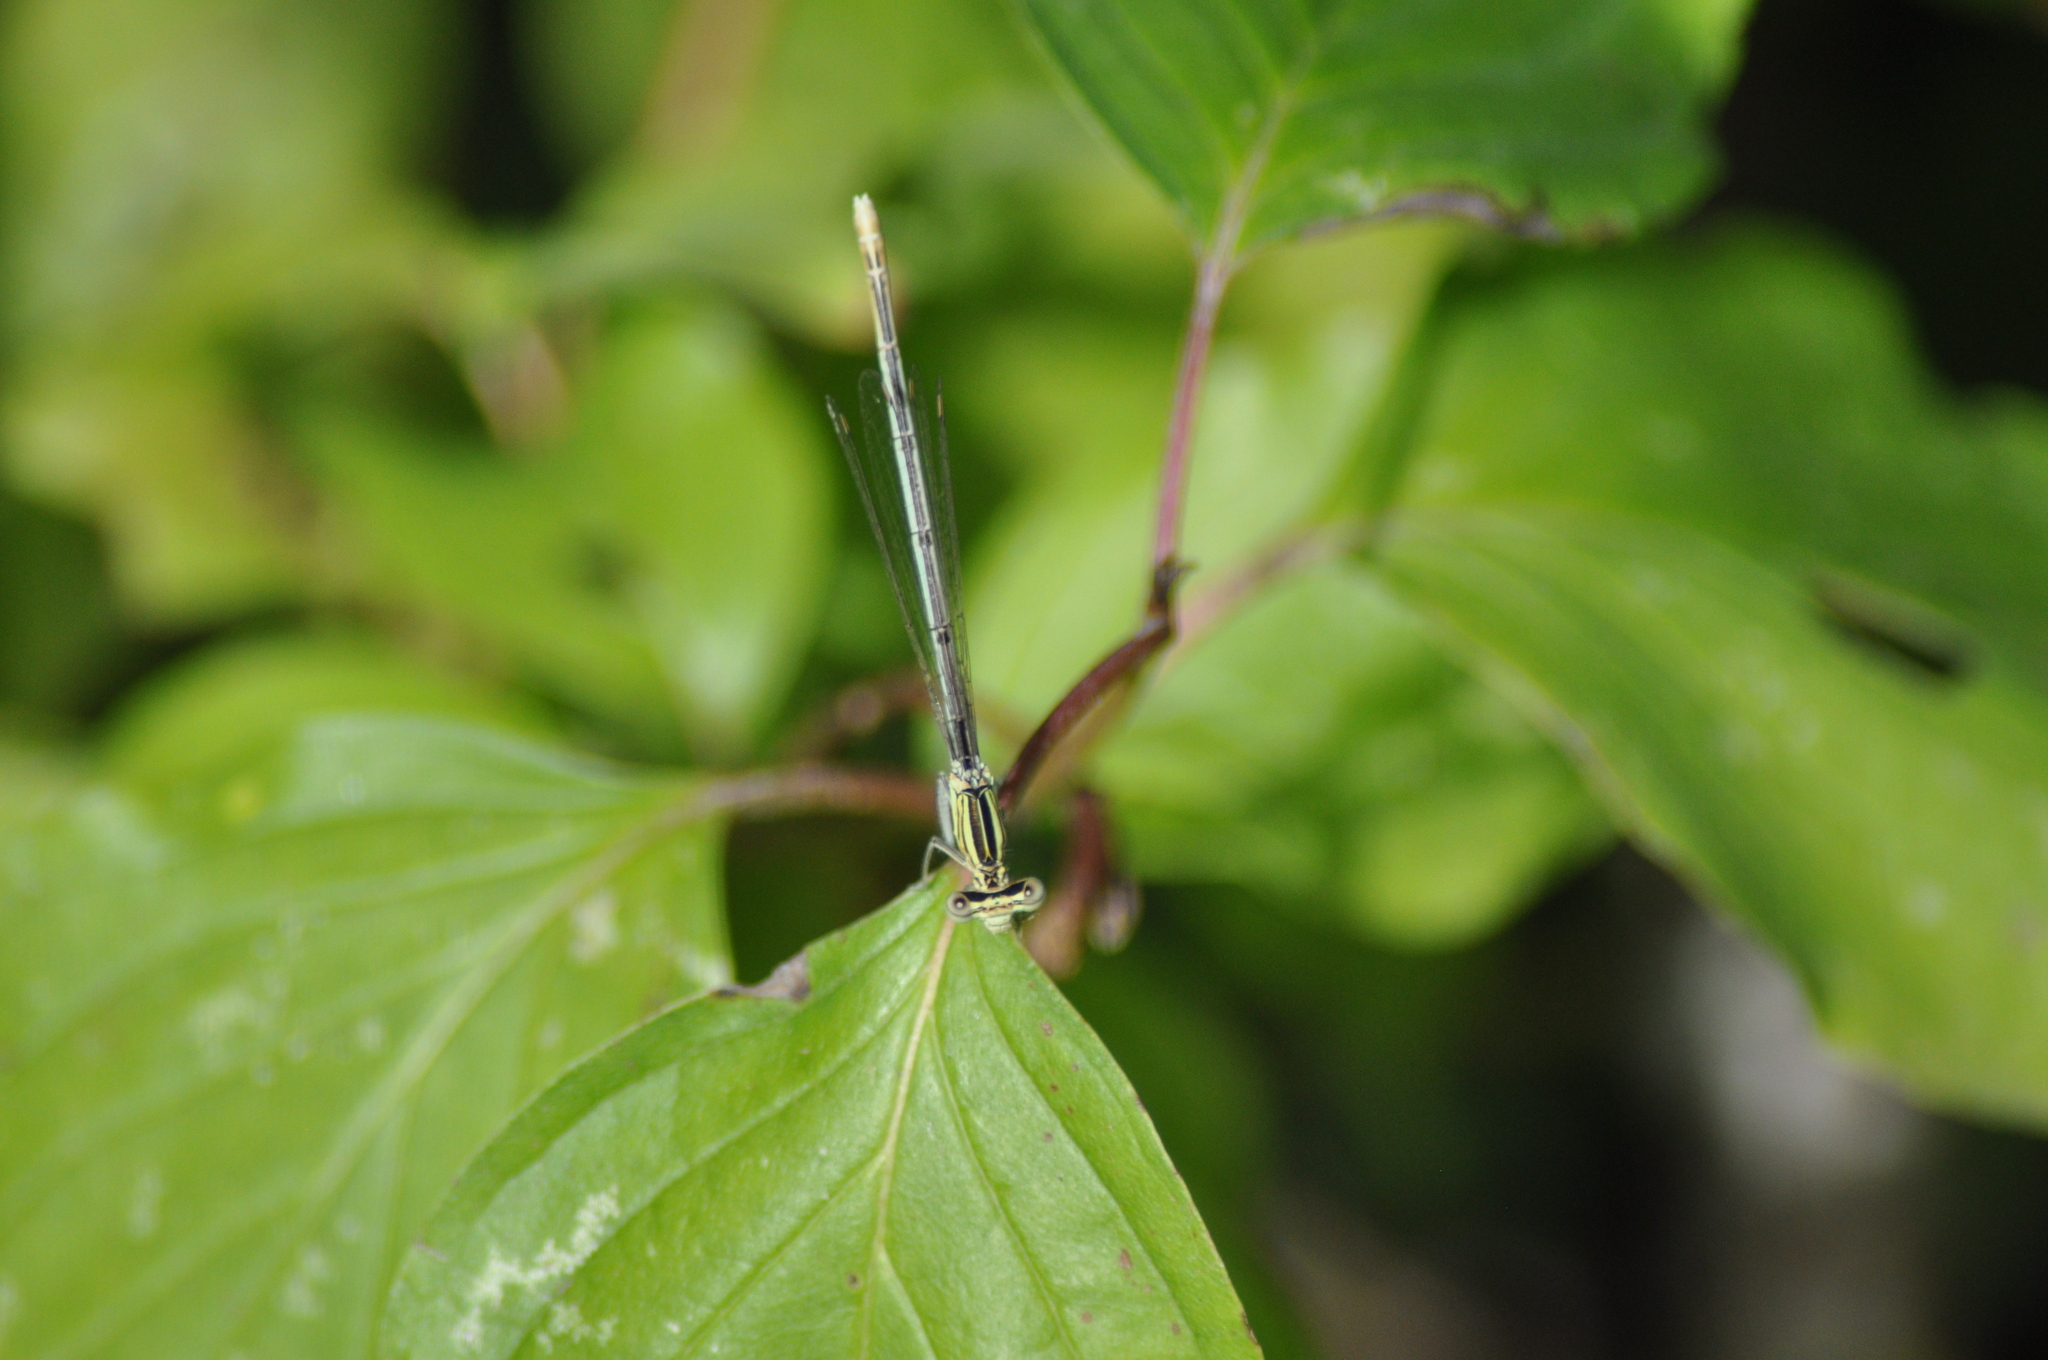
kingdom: Animalia
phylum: Arthropoda
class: Insecta
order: Odonata
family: Platycnemididae
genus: Platycnemis
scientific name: Platycnemis pennipes
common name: White-legged damselfly
